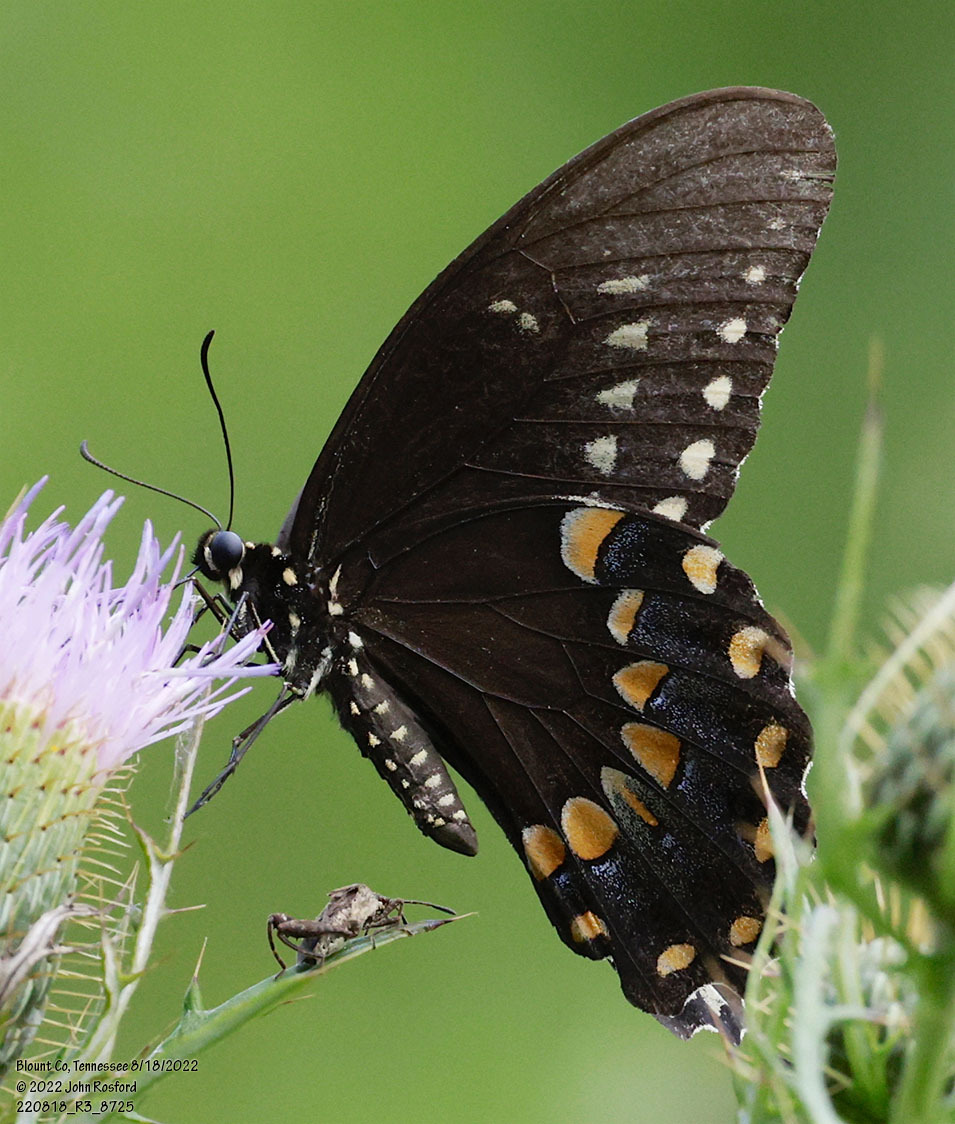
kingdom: Animalia
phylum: Arthropoda
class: Insecta
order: Lepidoptera
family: Papilionidae
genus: Papilio
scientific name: Papilio troilus
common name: Spicebush swallowtail
